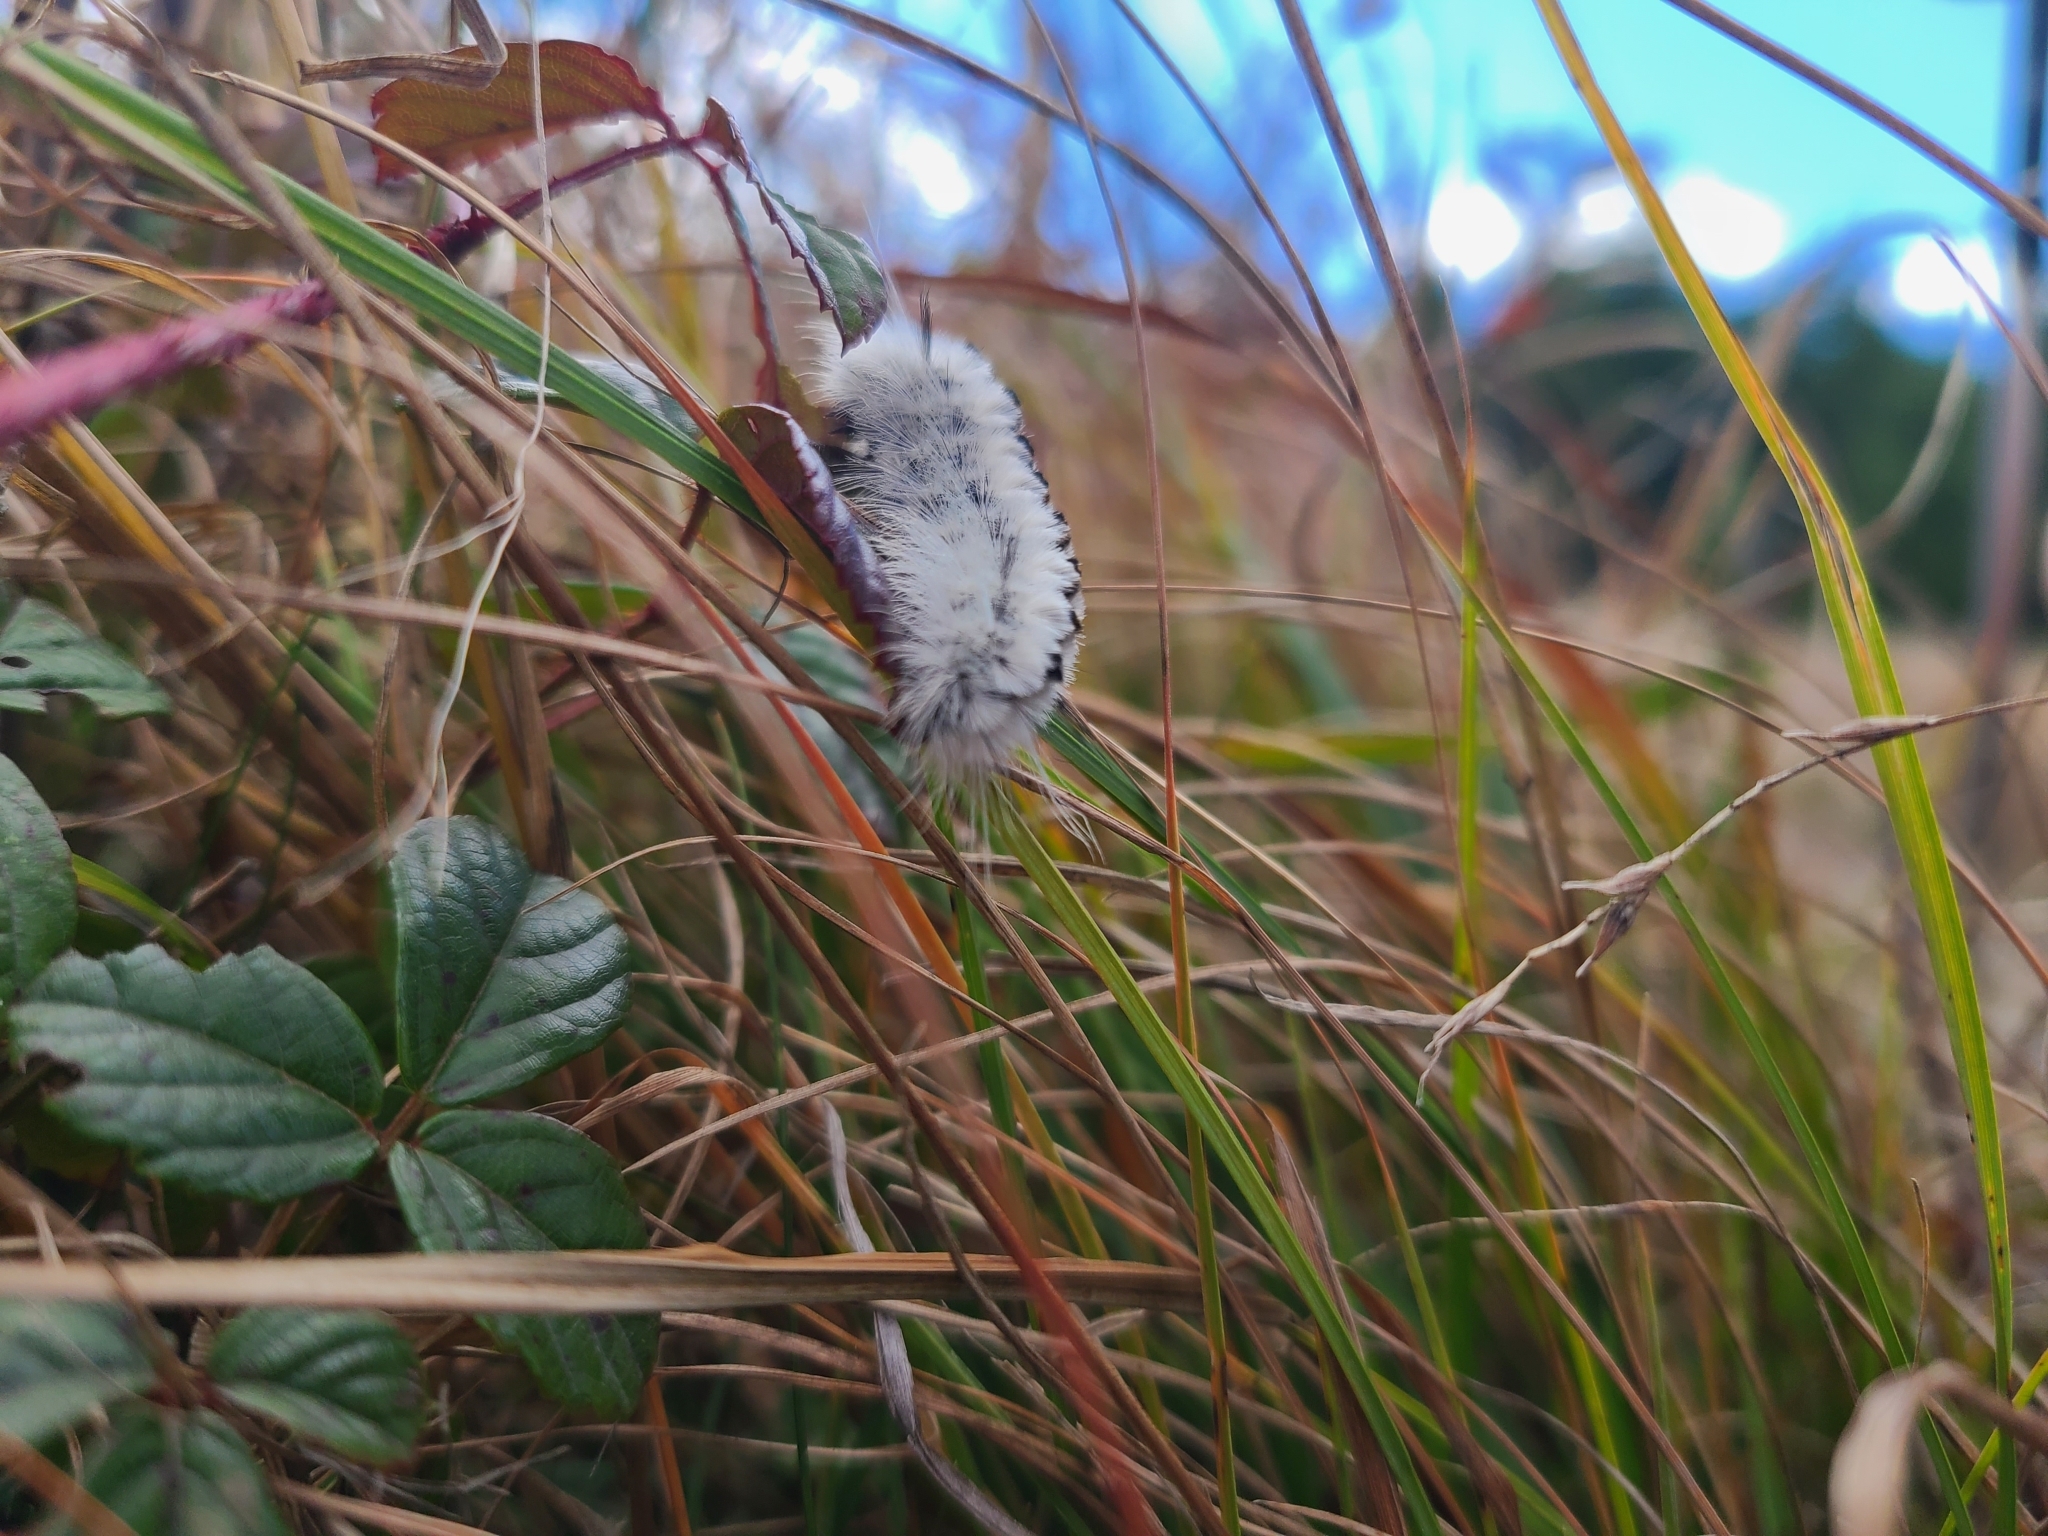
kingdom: Animalia
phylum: Arthropoda
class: Insecta
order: Lepidoptera
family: Erebidae
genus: Lophocampa
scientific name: Lophocampa caryae
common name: Hickory tussock moth
